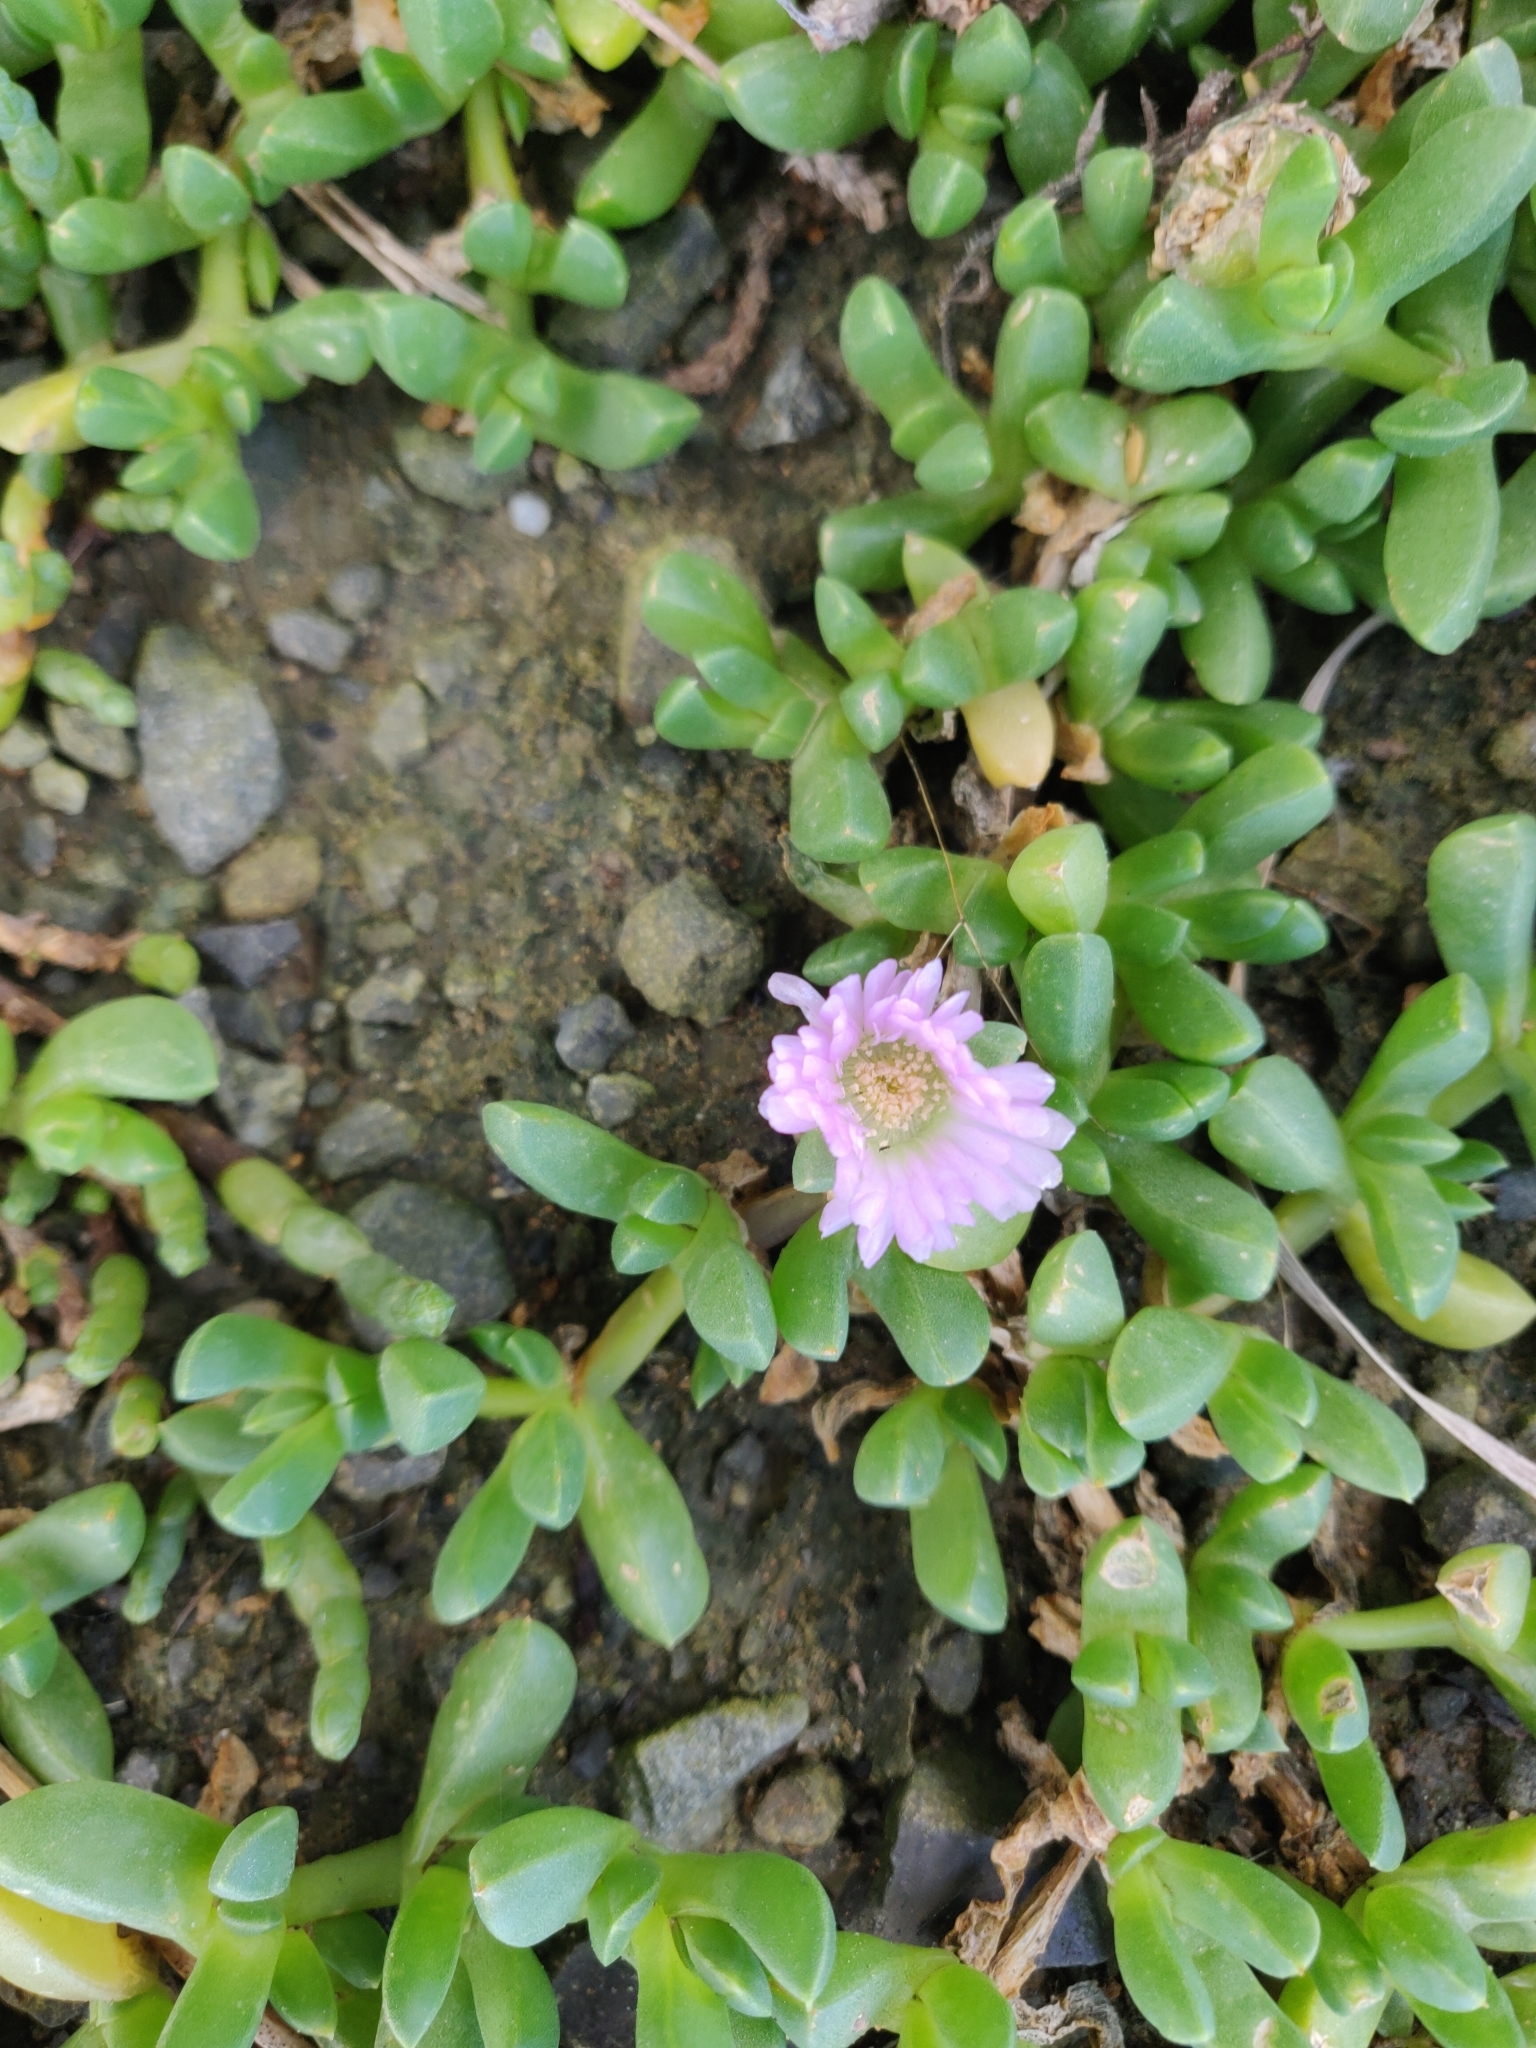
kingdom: Plantae
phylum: Tracheophyta
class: Magnoliopsida
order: Caryophyllales
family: Aizoaceae
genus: Disphyma
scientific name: Disphyma australe
